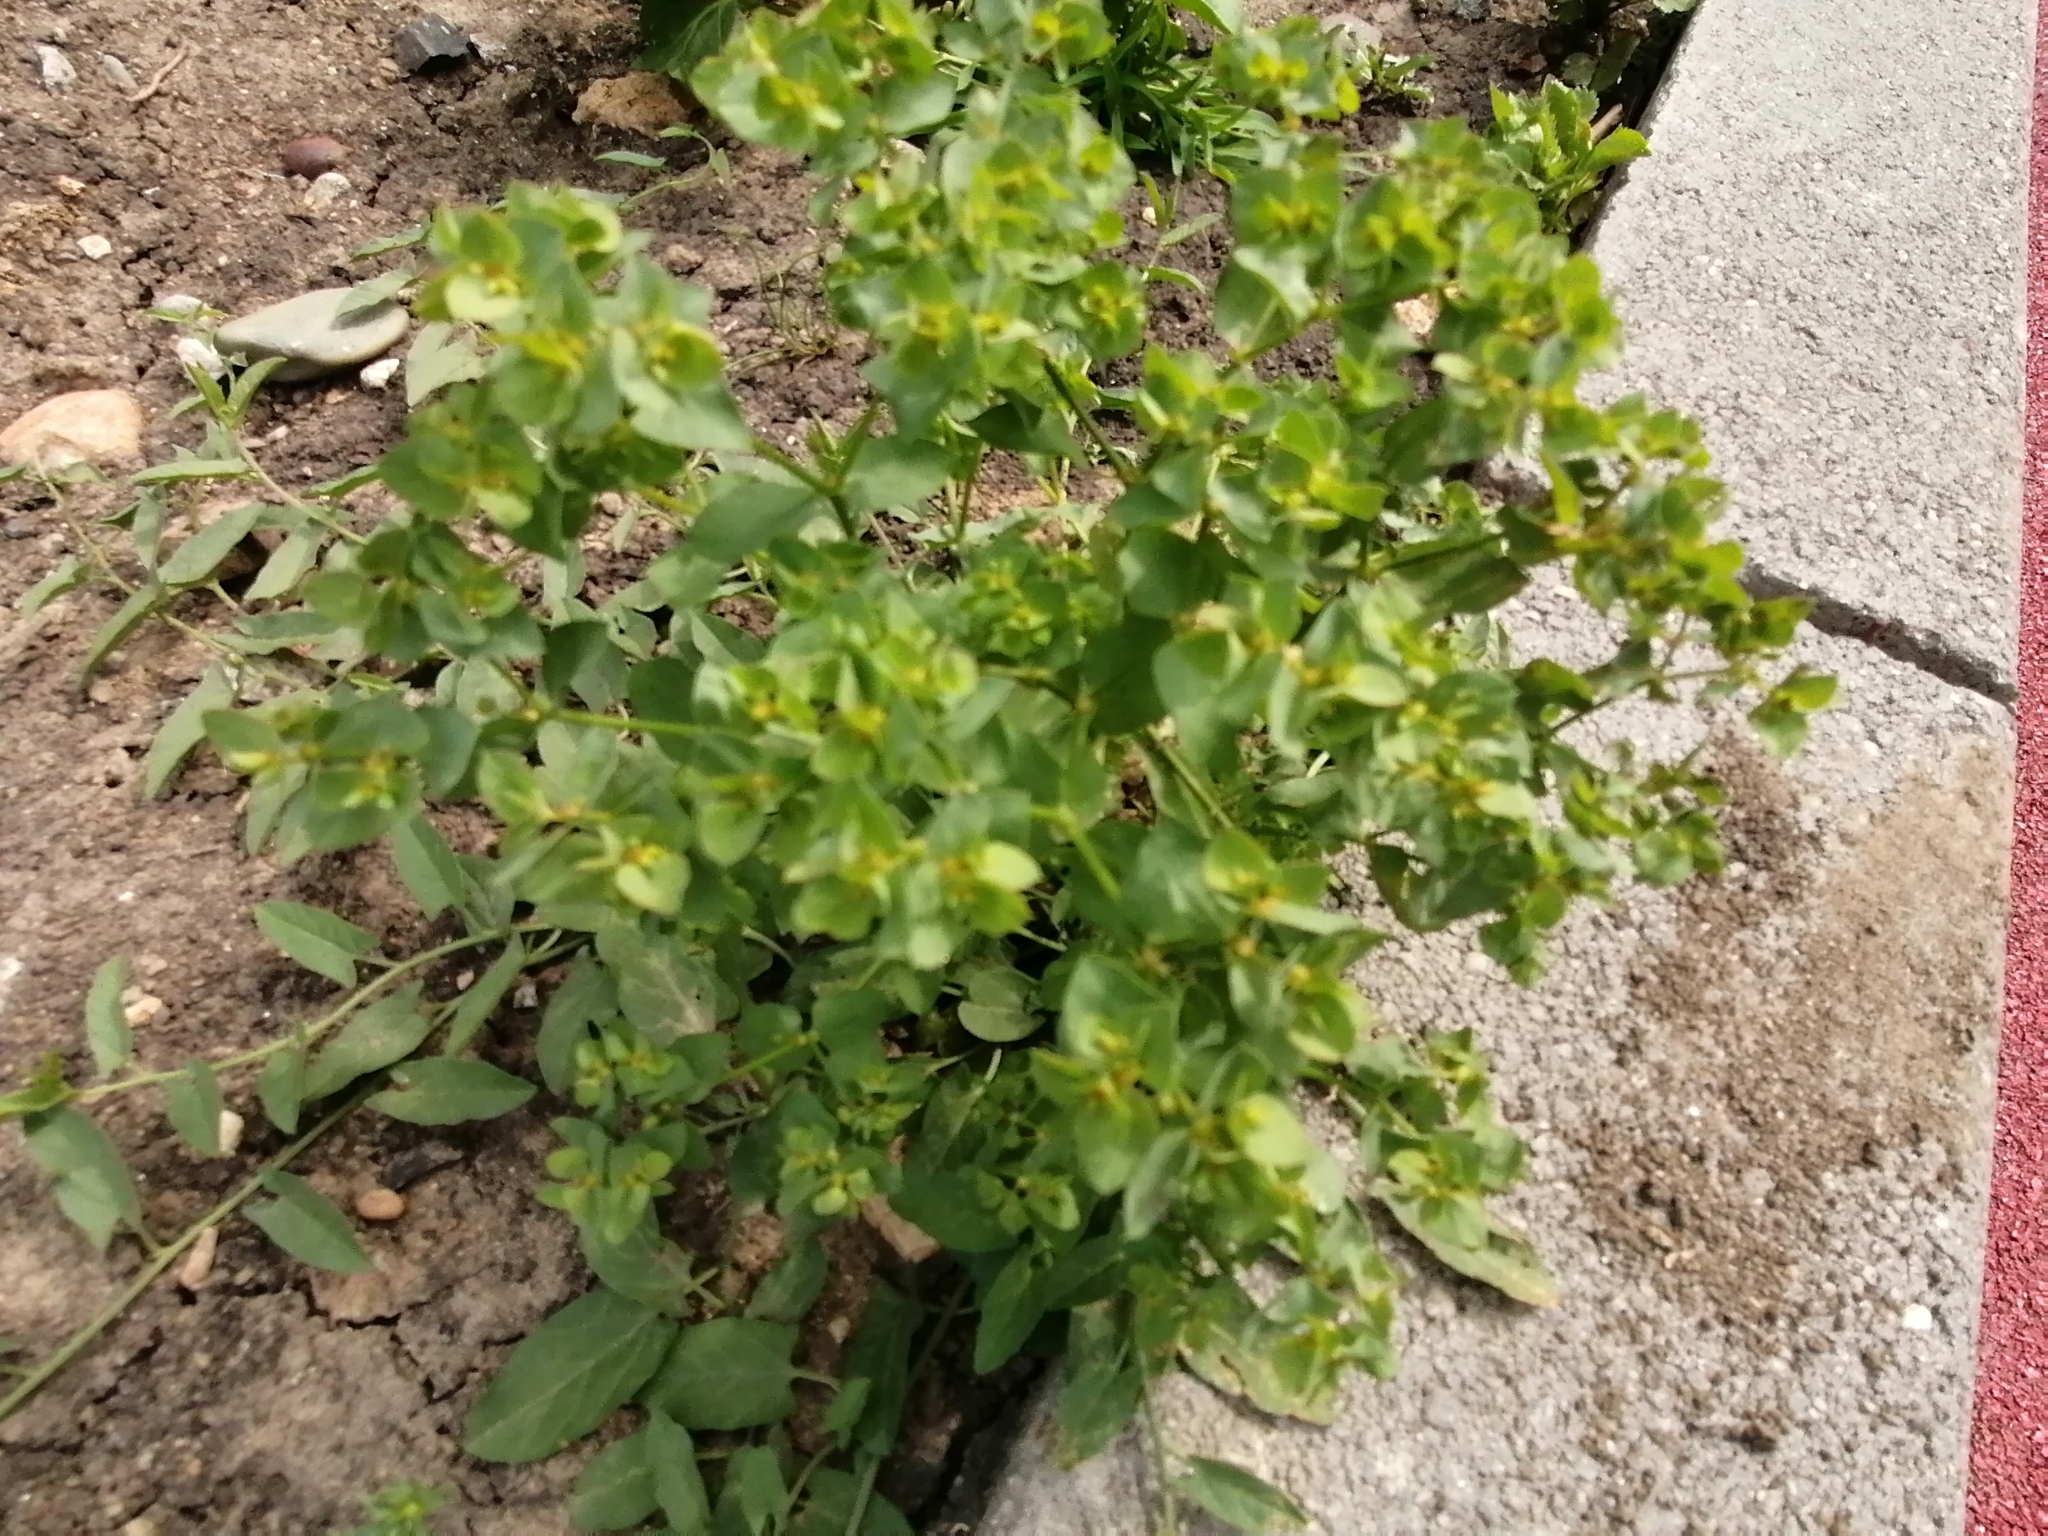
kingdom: Plantae
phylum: Tracheophyta
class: Magnoliopsida
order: Malpighiales
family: Euphorbiaceae
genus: Euphorbia
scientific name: Euphorbia peplus
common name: Petty spurge
